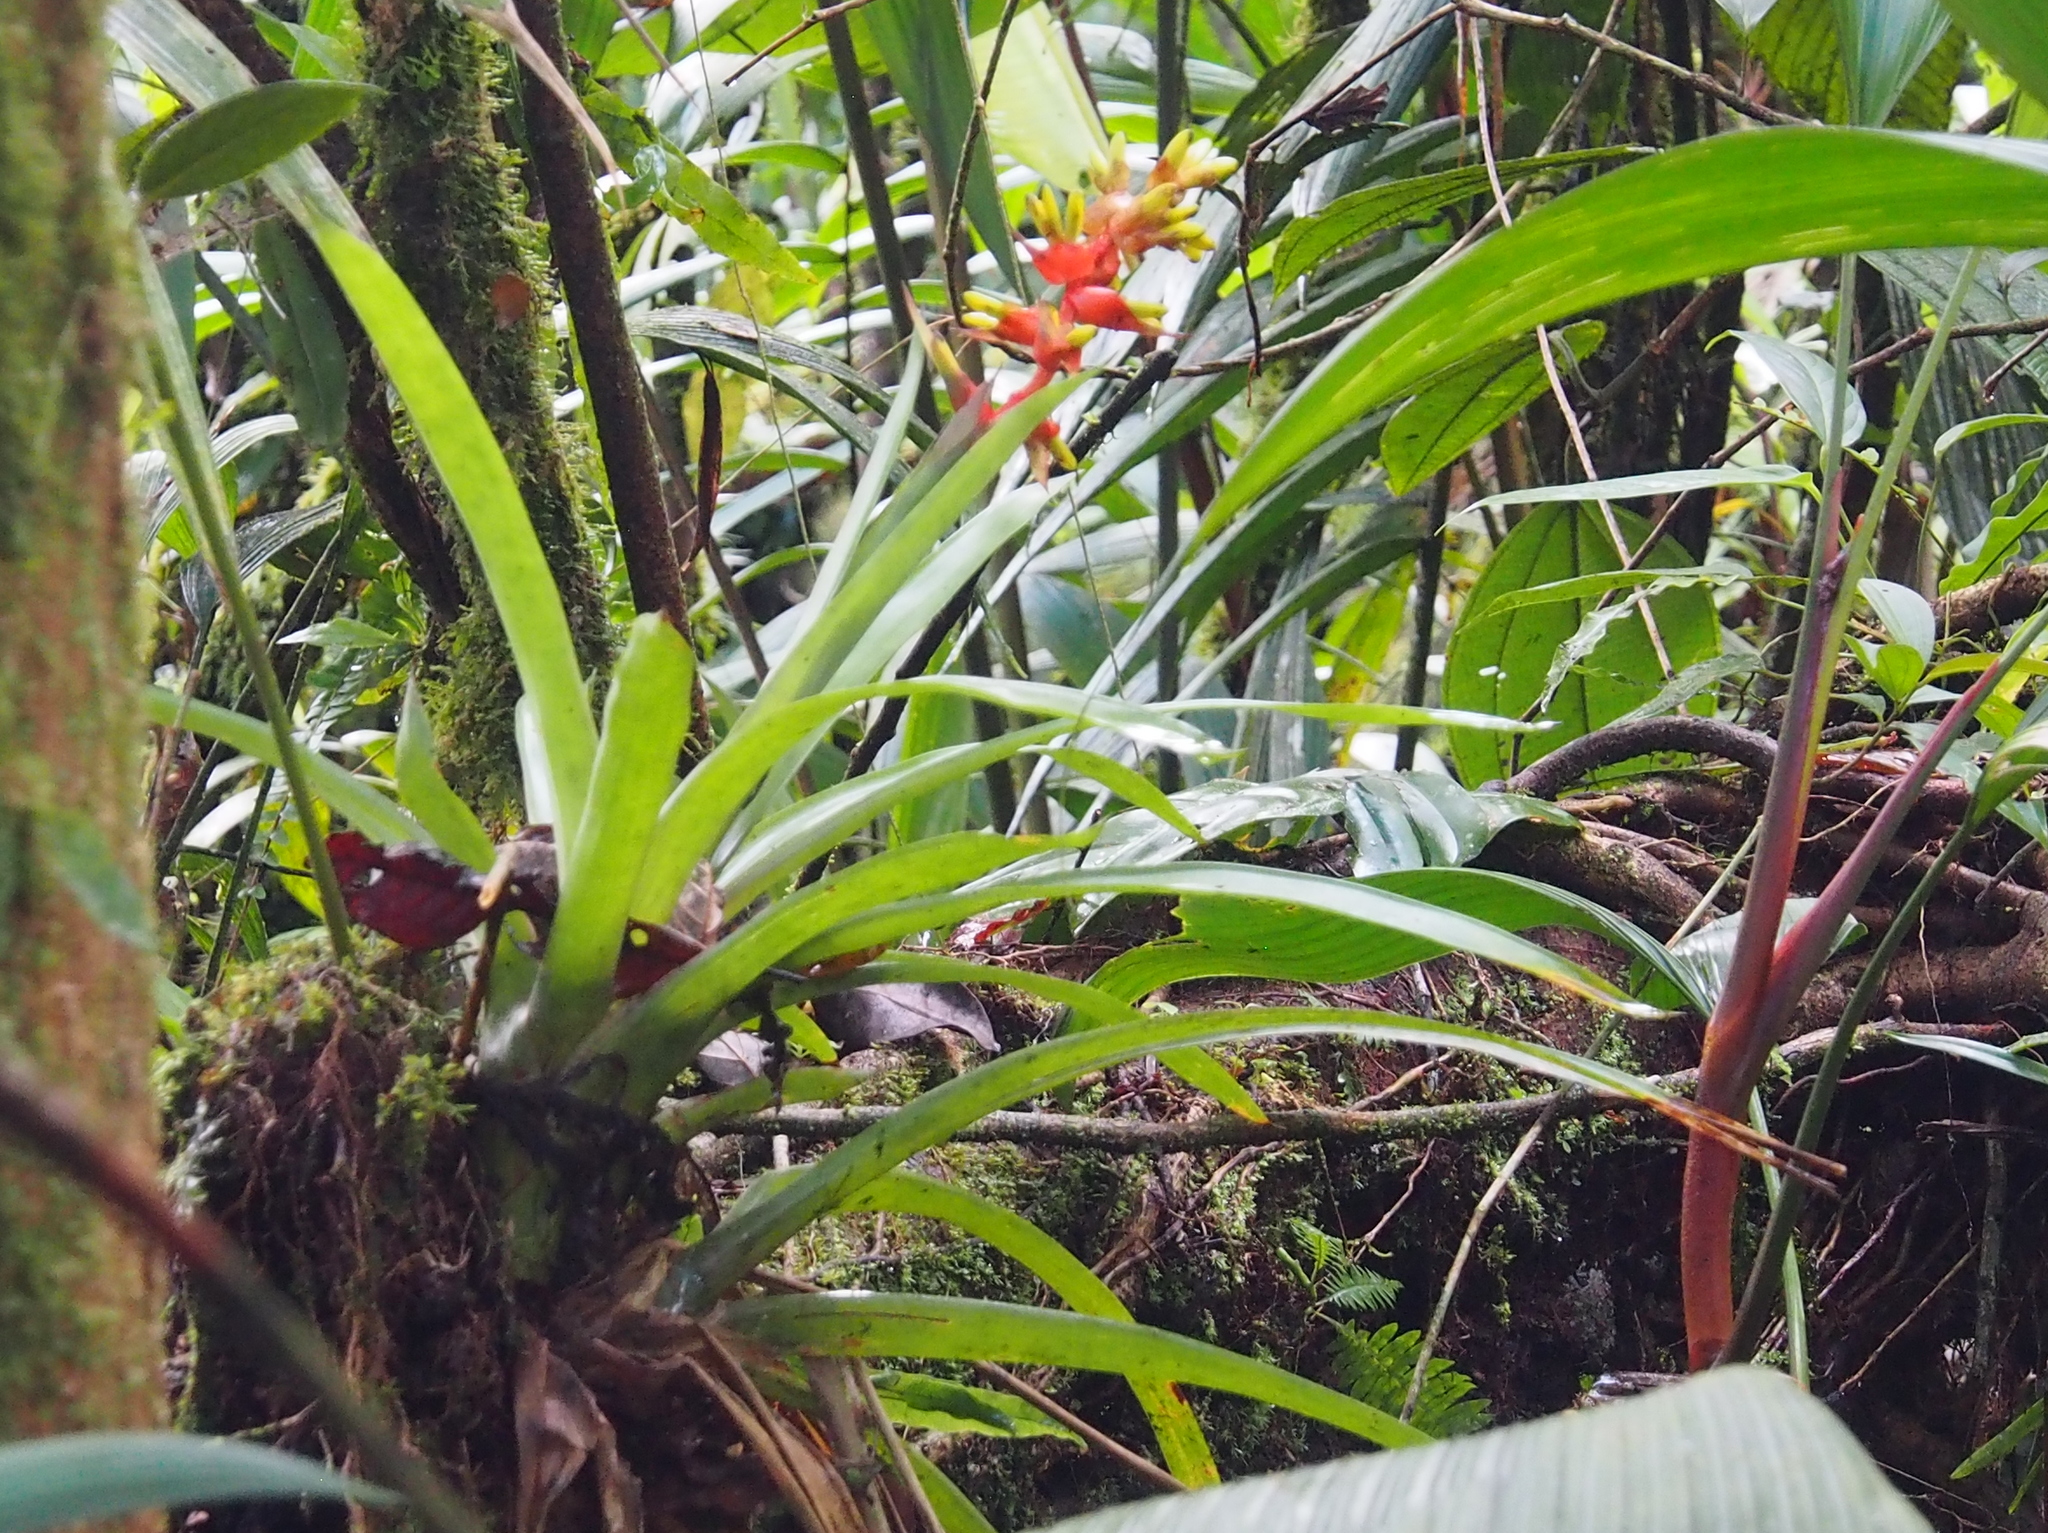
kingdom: Plantae
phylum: Tracheophyta
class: Liliopsida
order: Poales
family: Bromeliaceae
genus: Guzmania
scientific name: Guzmania donnellsmithii
